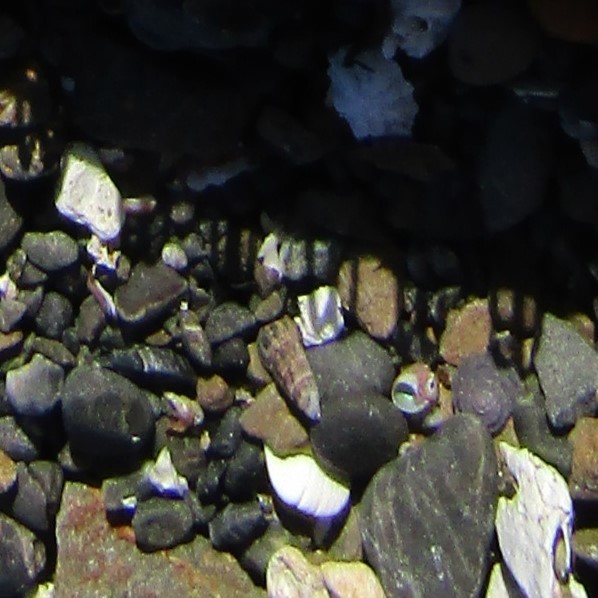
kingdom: Animalia
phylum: Mollusca
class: Gastropoda
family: Batillariidae
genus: Zeacumantus
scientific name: Zeacumantus subcarinatus
